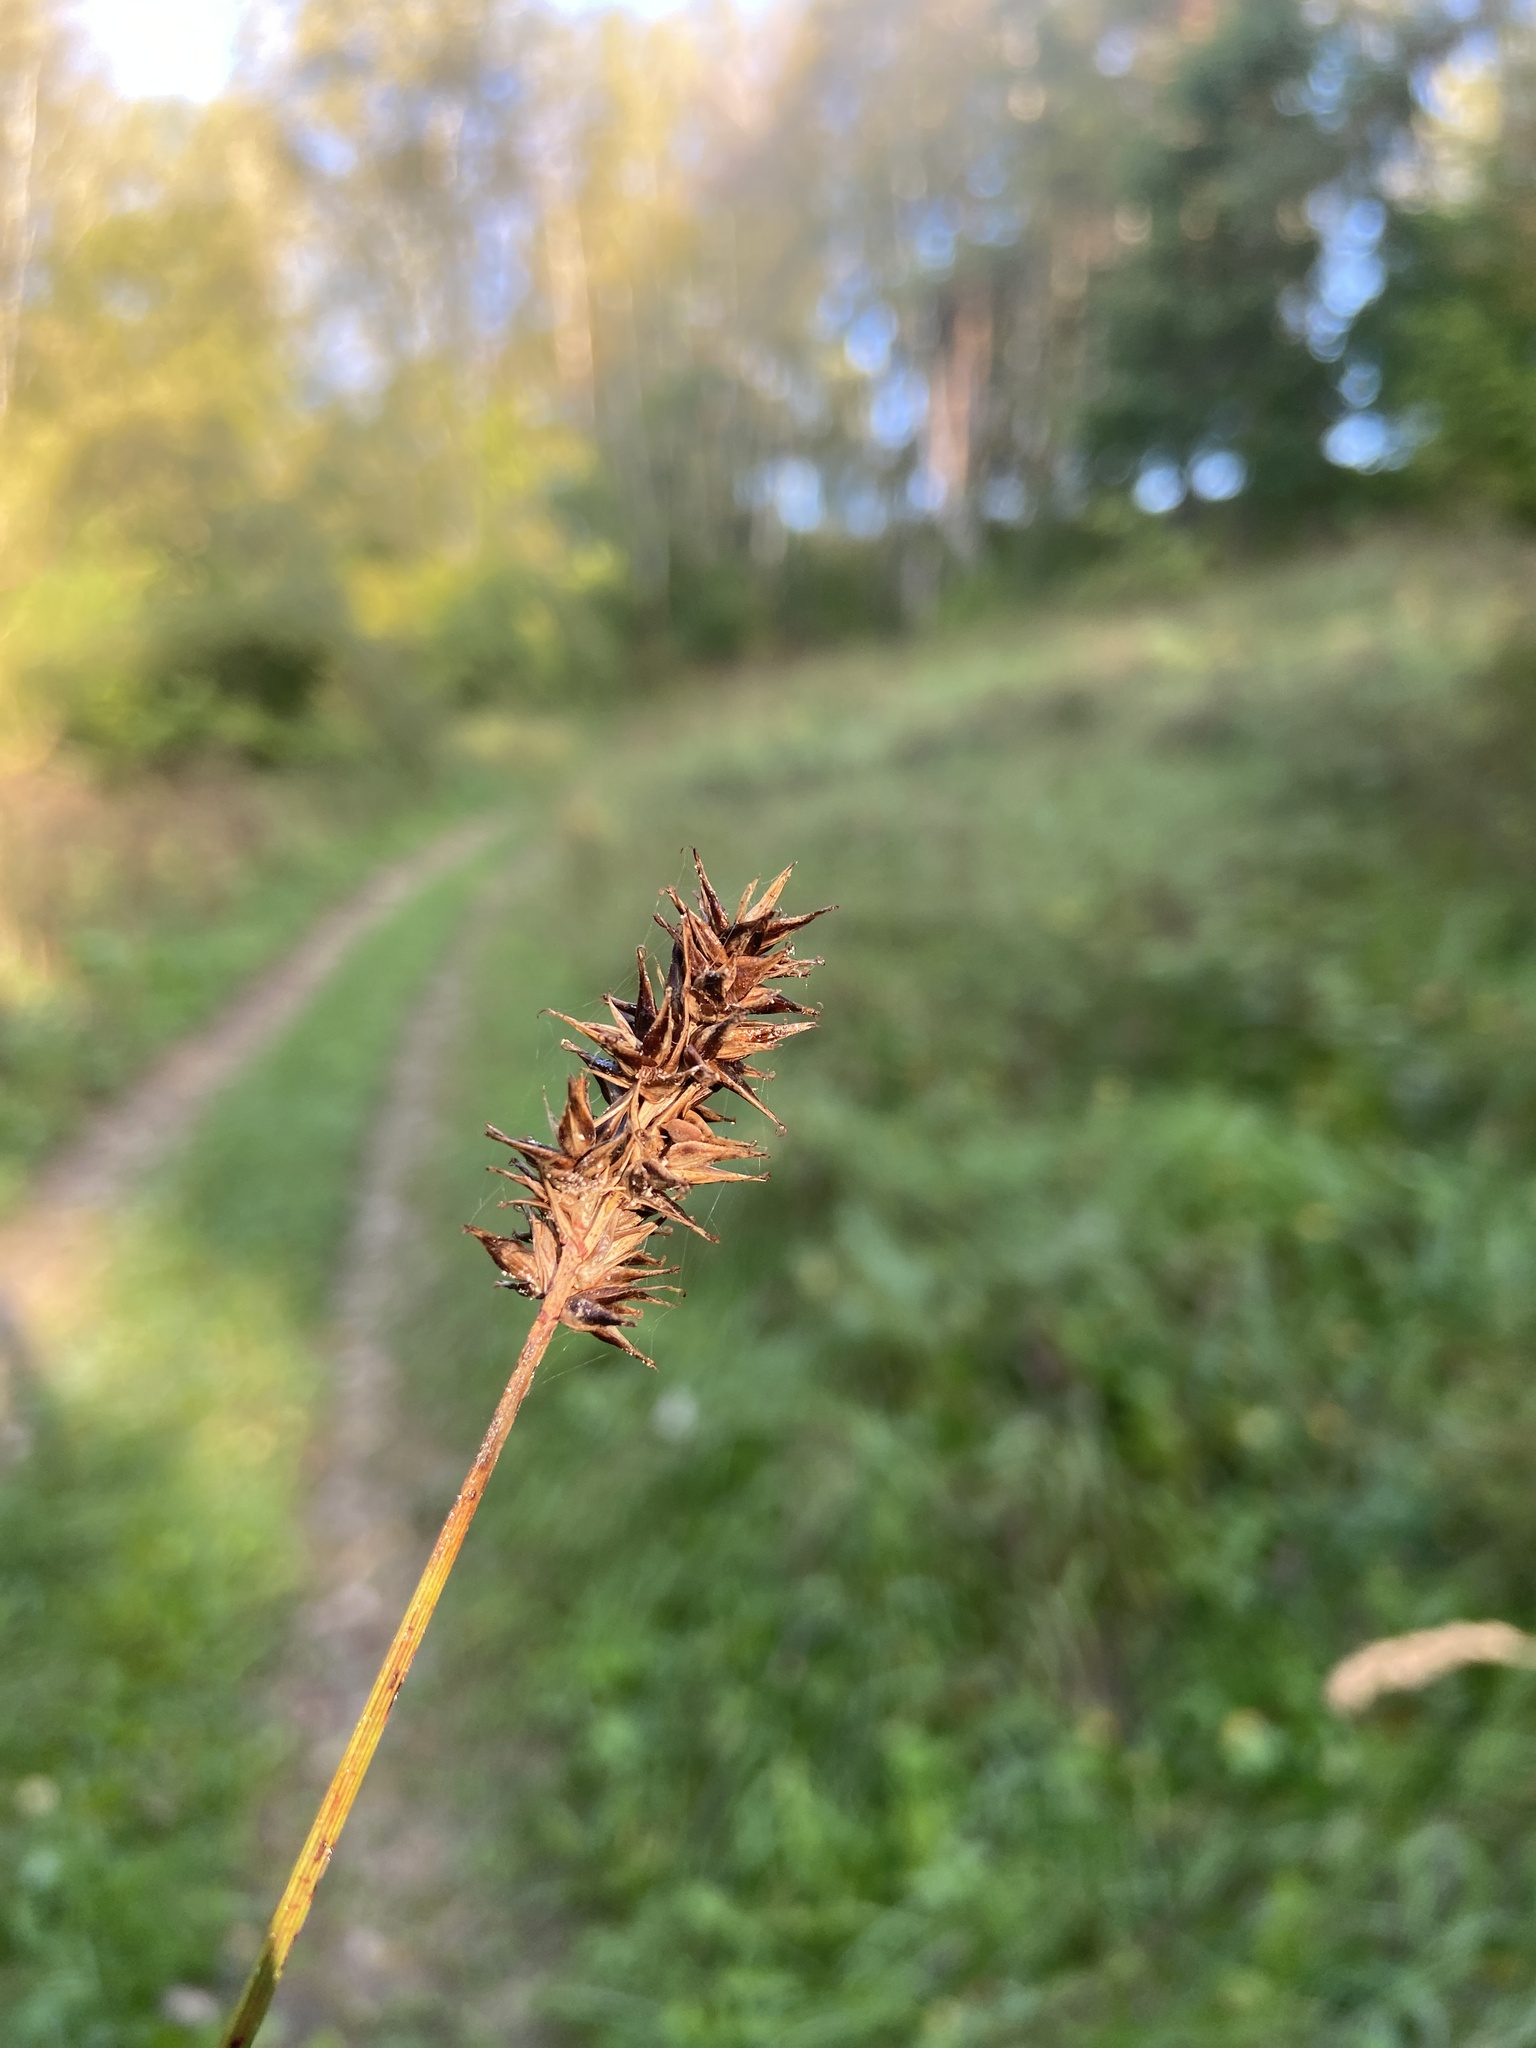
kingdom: Plantae
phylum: Tracheophyta
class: Liliopsida
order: Poales
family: Cyperaceae
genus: Carex
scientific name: Carex spicata
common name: Spiked sedge
